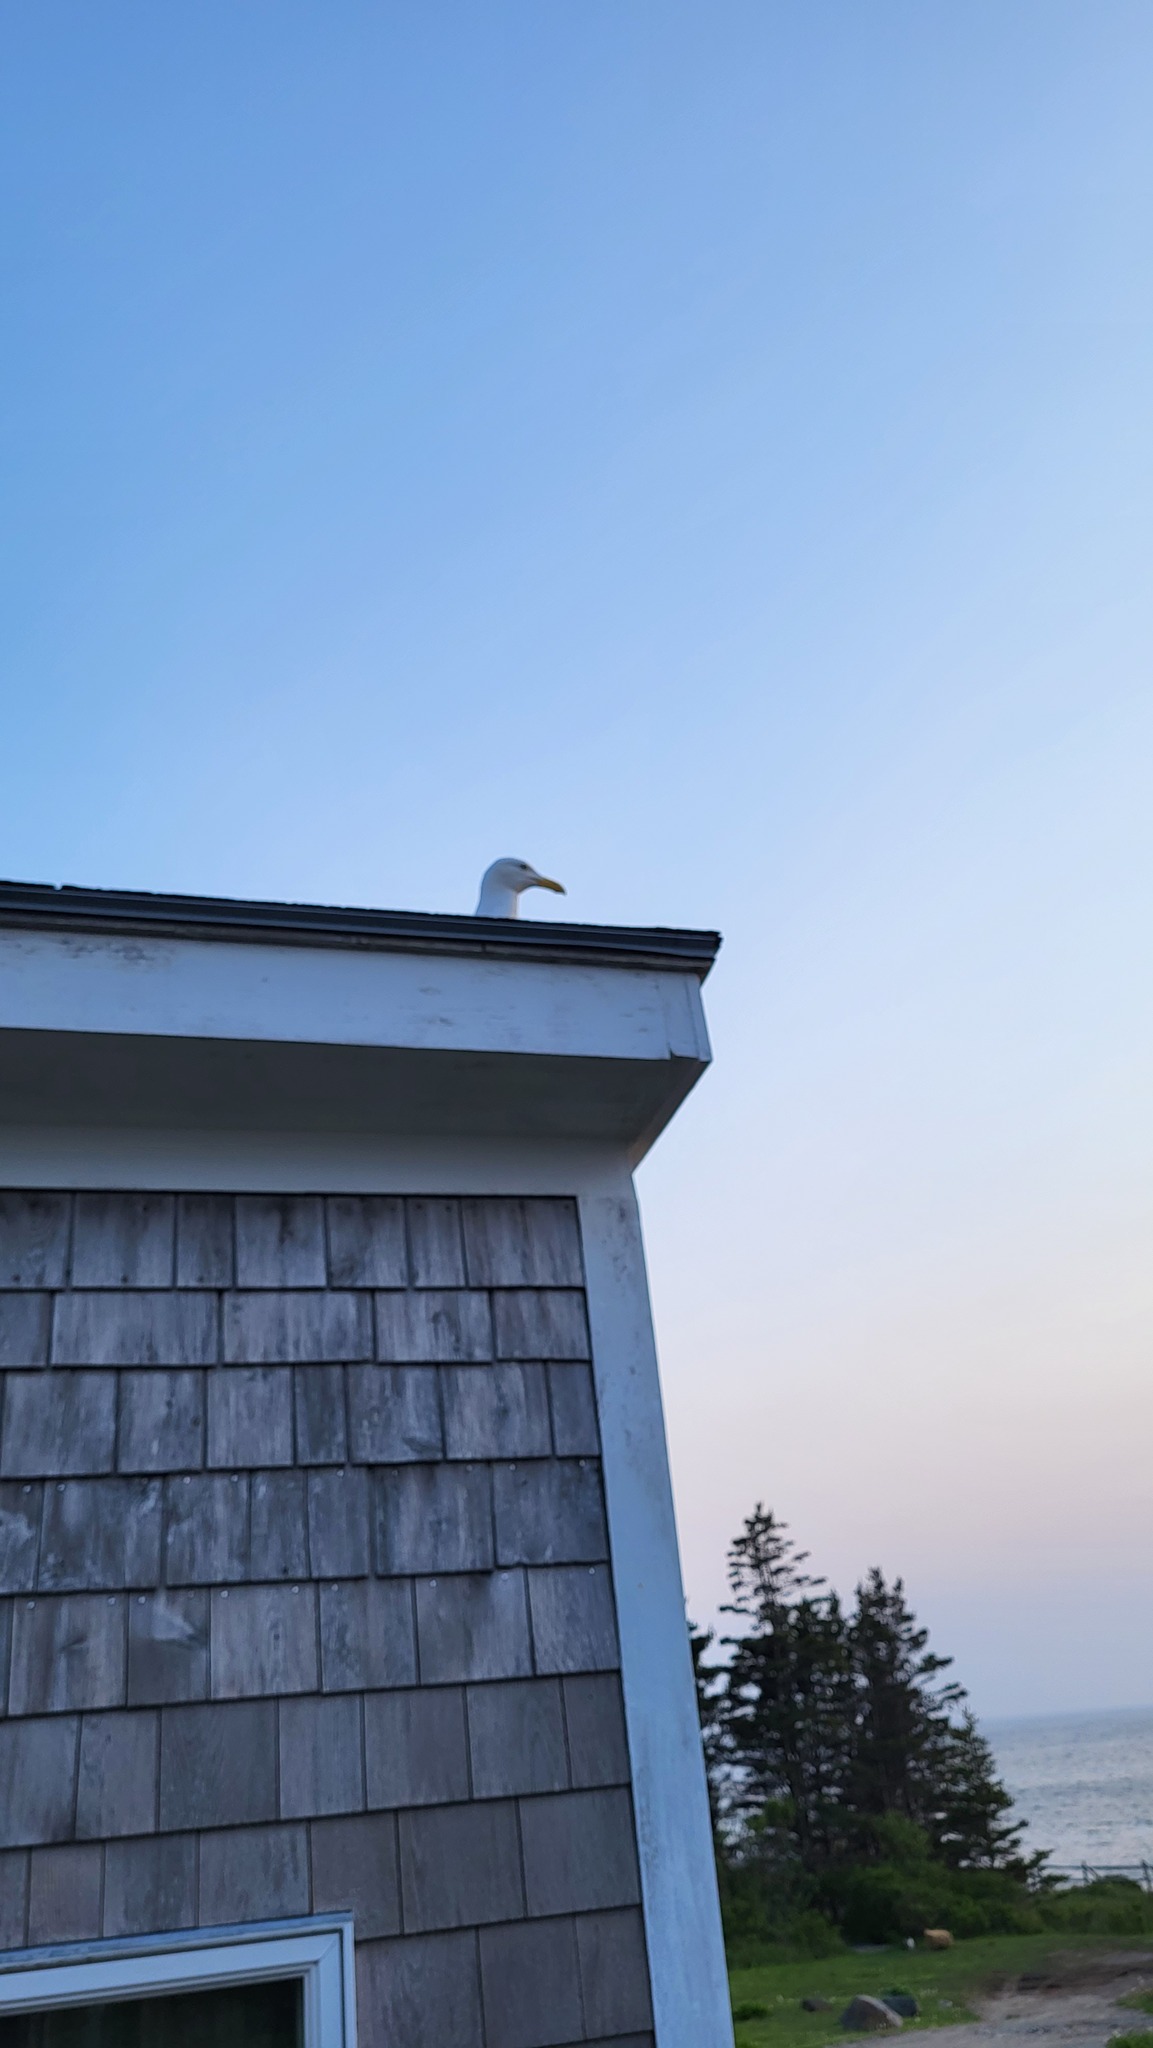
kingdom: Animalia
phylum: Chordata
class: Aves
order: Charadriiformes
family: Laridae
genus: Larus
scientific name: Larus argentatus
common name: Herring gull
